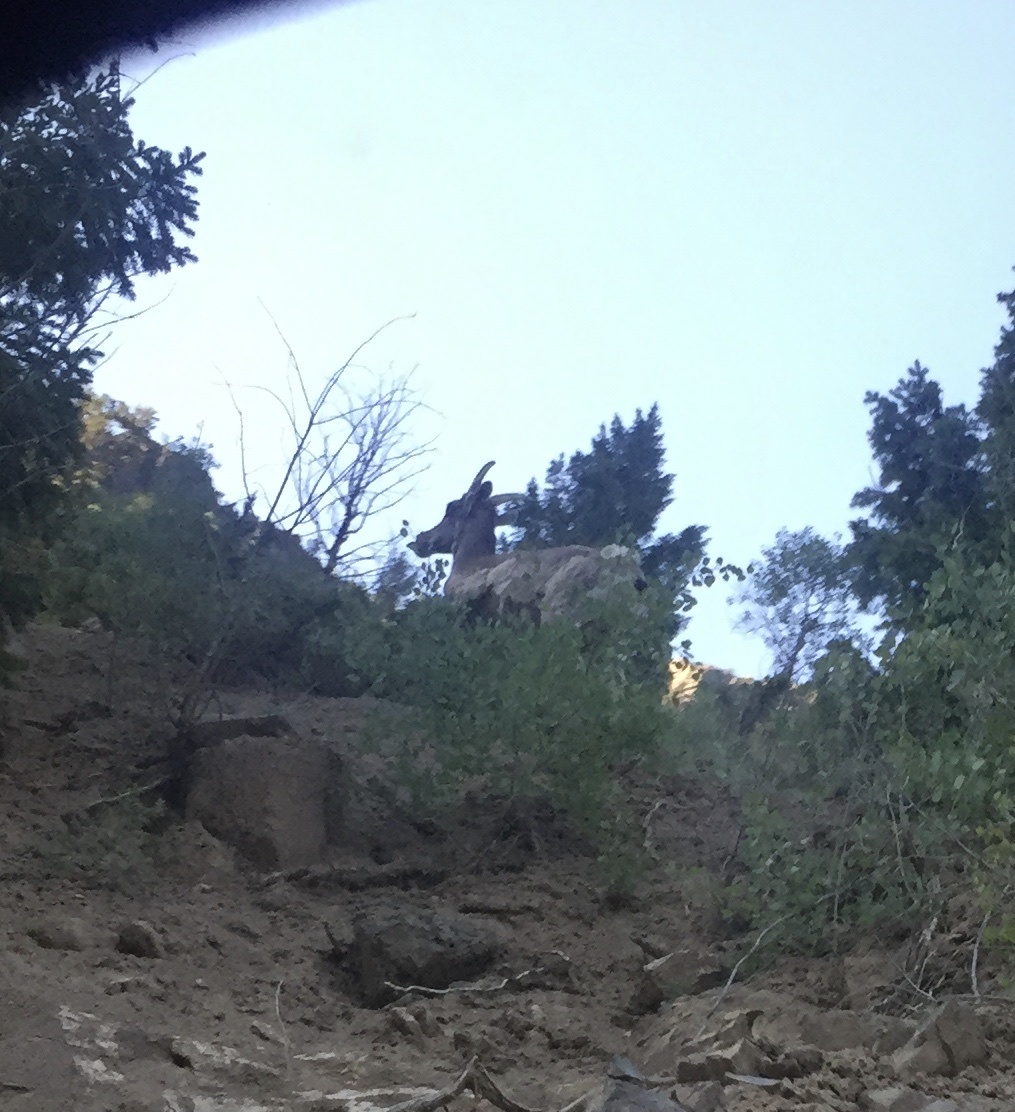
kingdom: Animalia
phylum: Chordata
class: Mammalia
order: Artiodactyla
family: Bovidae
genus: Ovis
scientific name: Ovis canadensis
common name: Bighorn sheep
